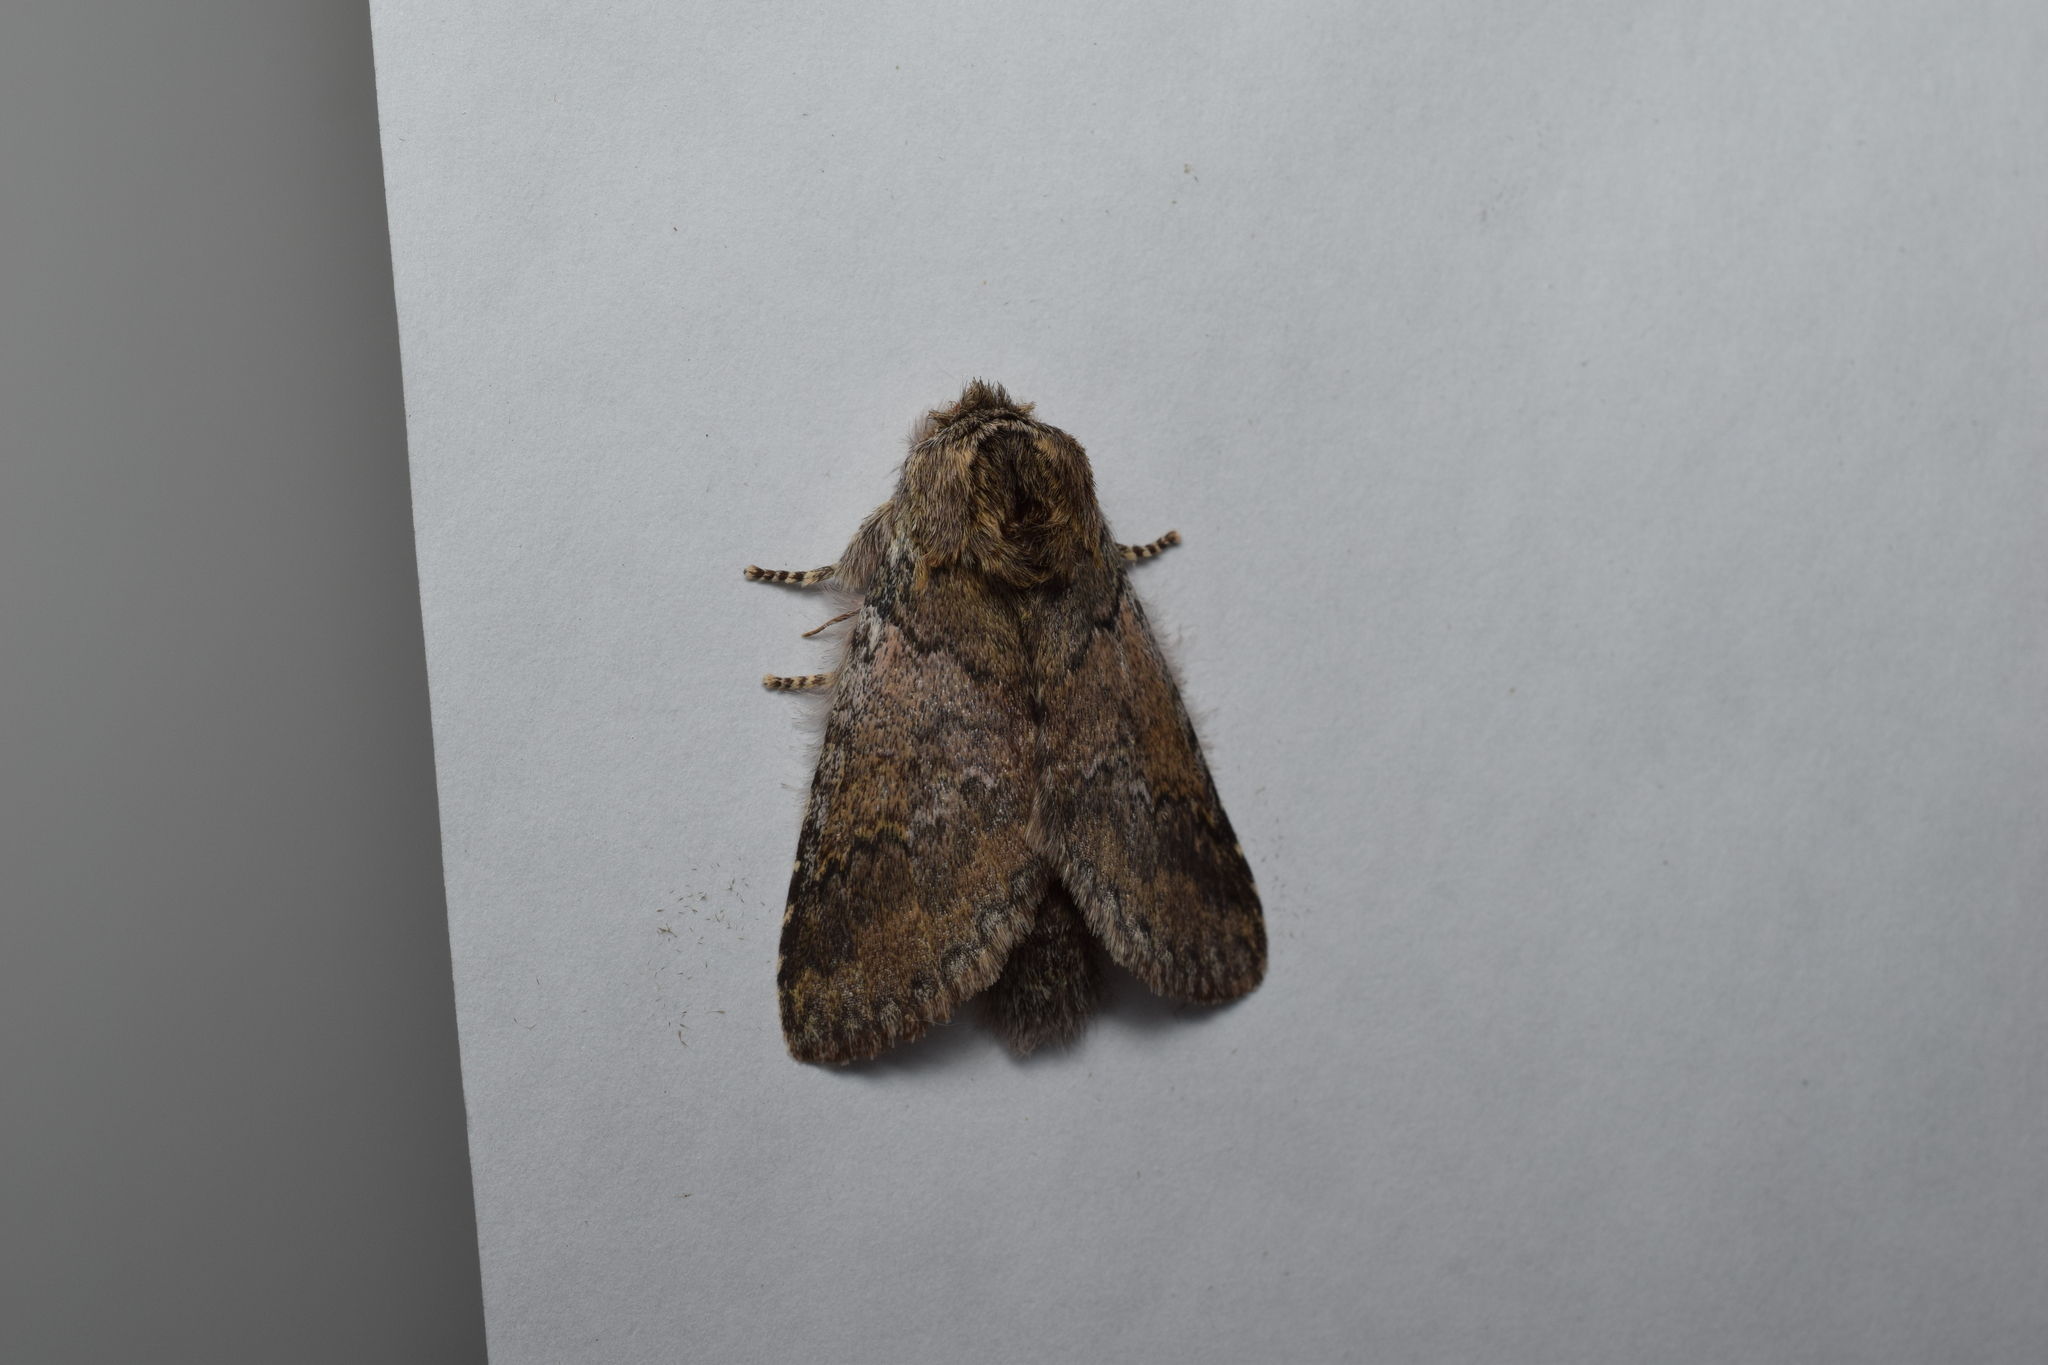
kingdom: Animalia
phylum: Arthropoda
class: Insecta
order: Lepidoptera
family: Notodontidae
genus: Disparia
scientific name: Disparia diluta
